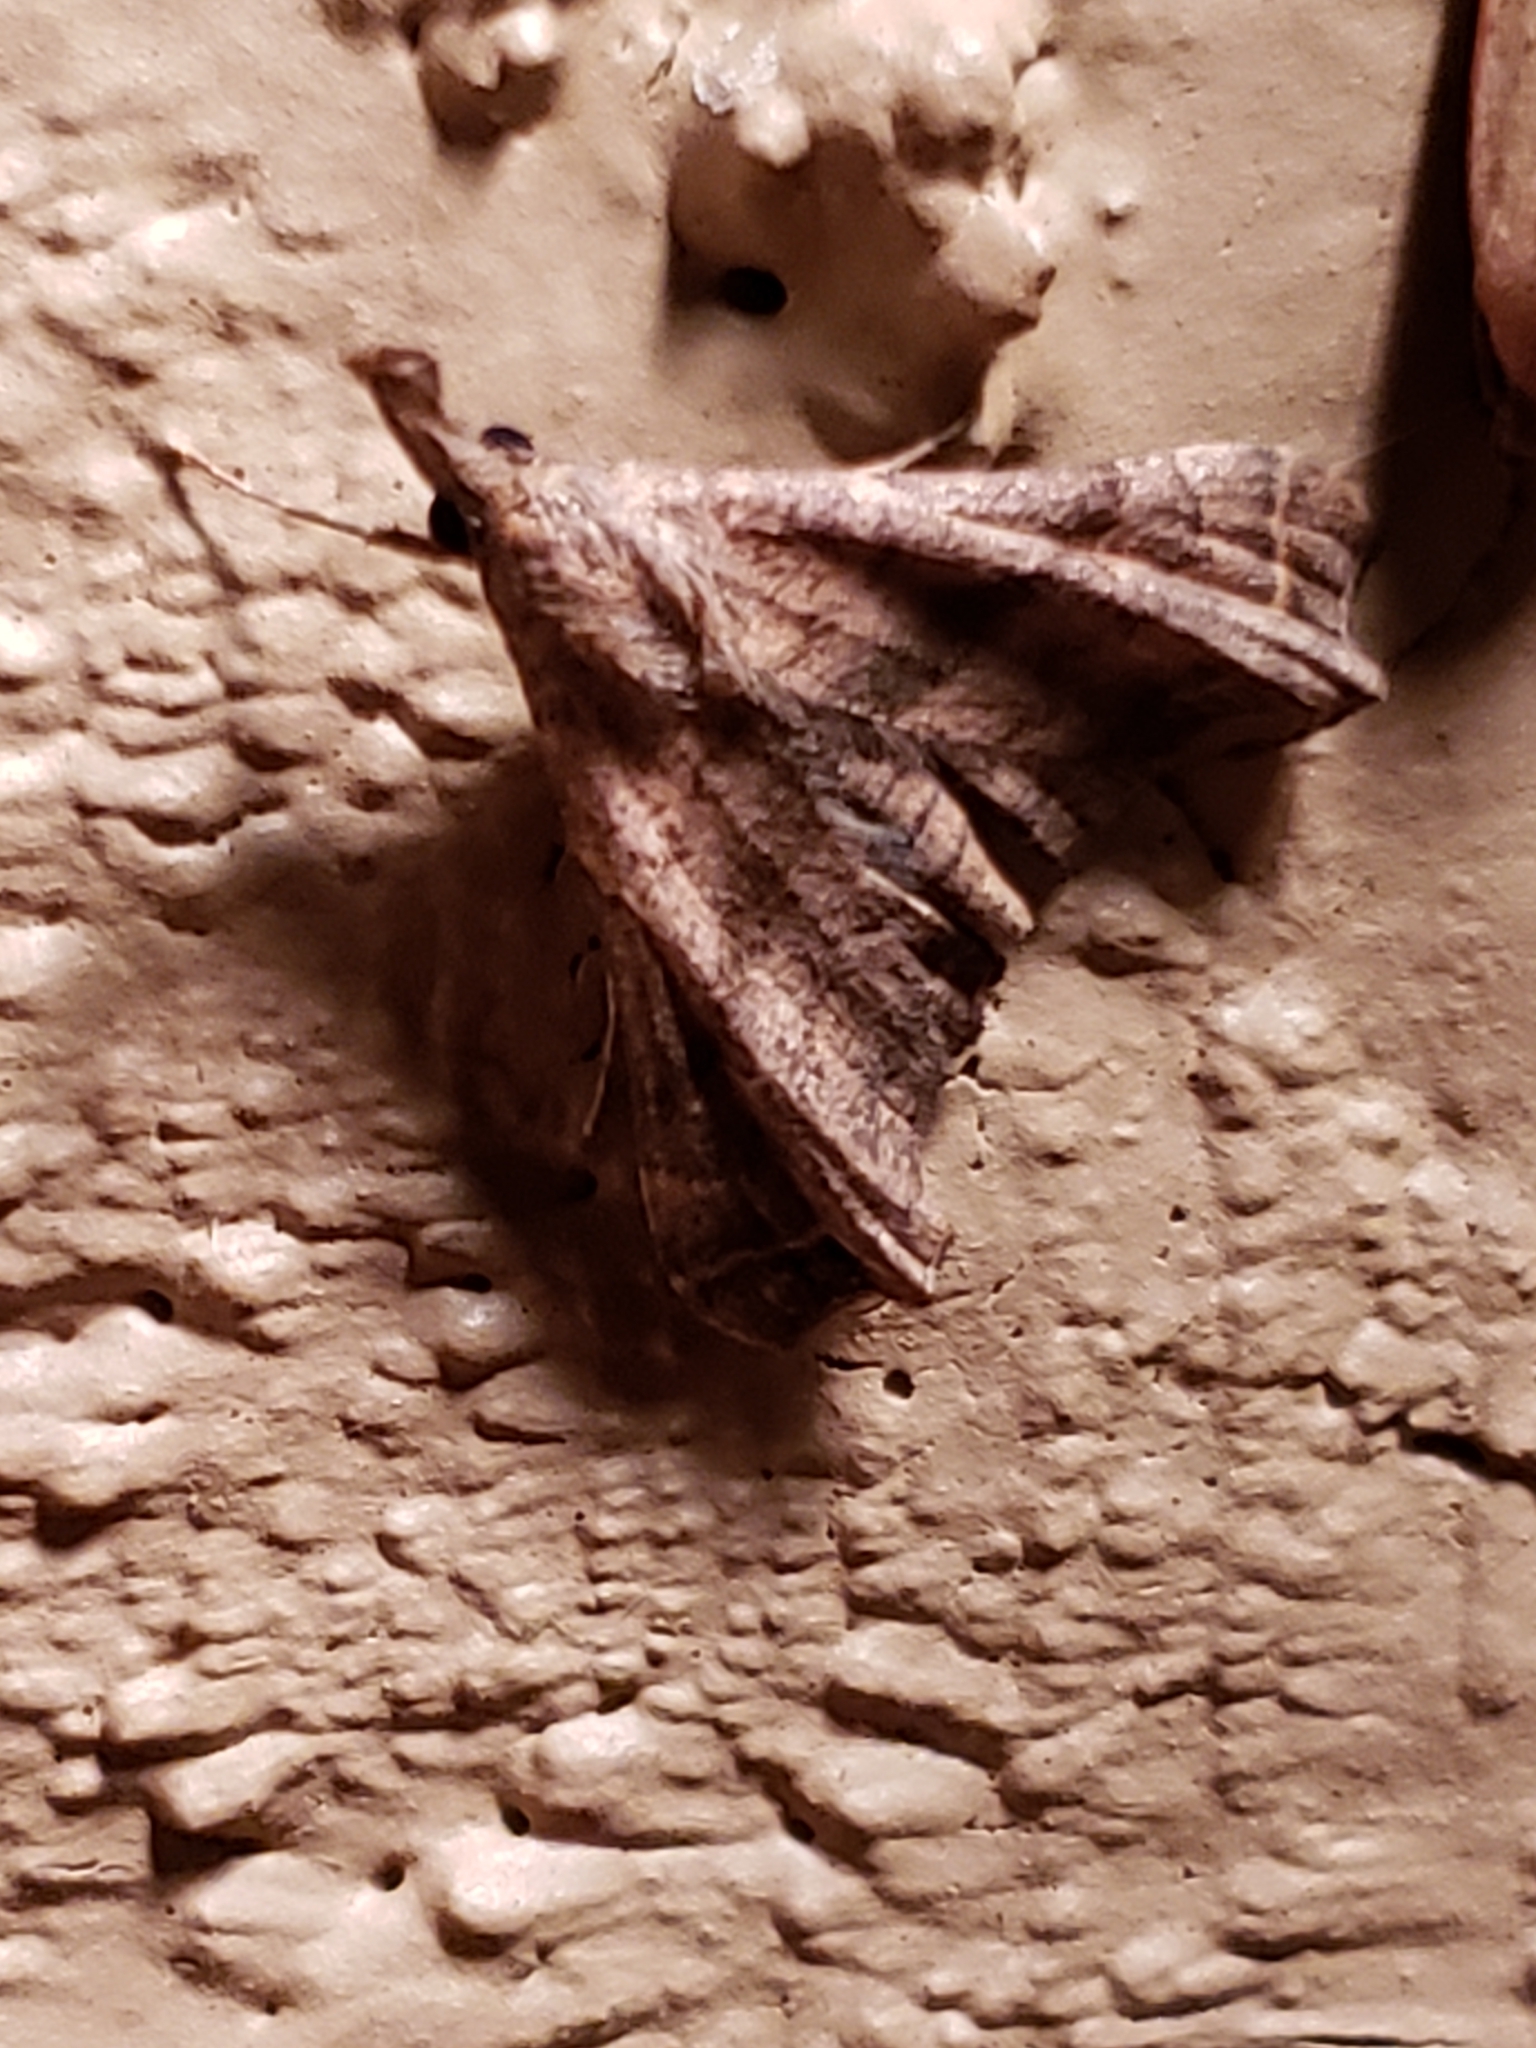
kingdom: Animalia
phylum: Arthropoda
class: Insecta
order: Lepidoptera
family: Erebidae
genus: Palthis
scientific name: Palthis angulalis
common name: Dark-spotted palthis moth
